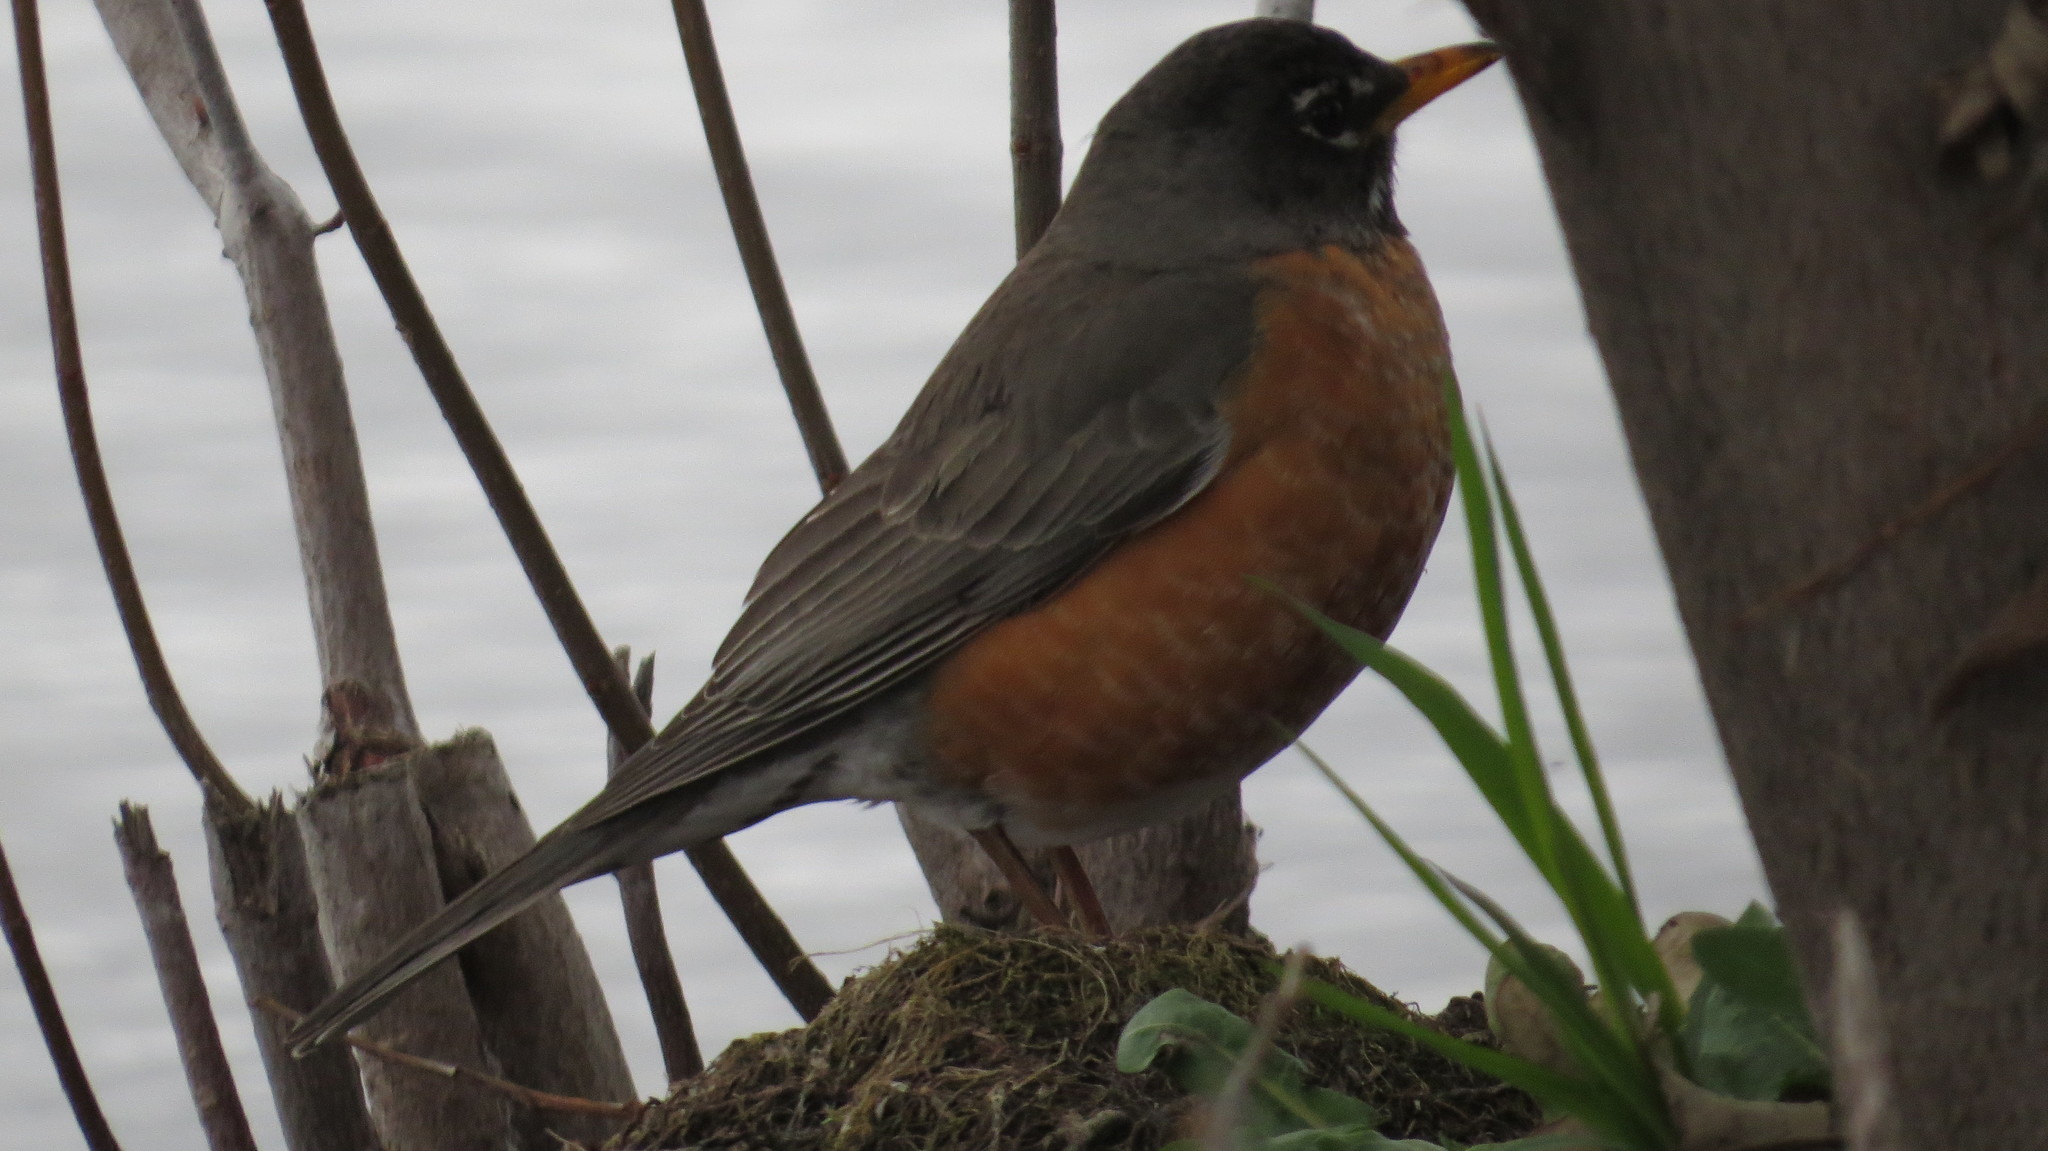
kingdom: Animalia
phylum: Chordata
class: Aves
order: Passeriformes
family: Turdidae
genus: Turdus
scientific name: Turdus migratorius
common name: American robin
